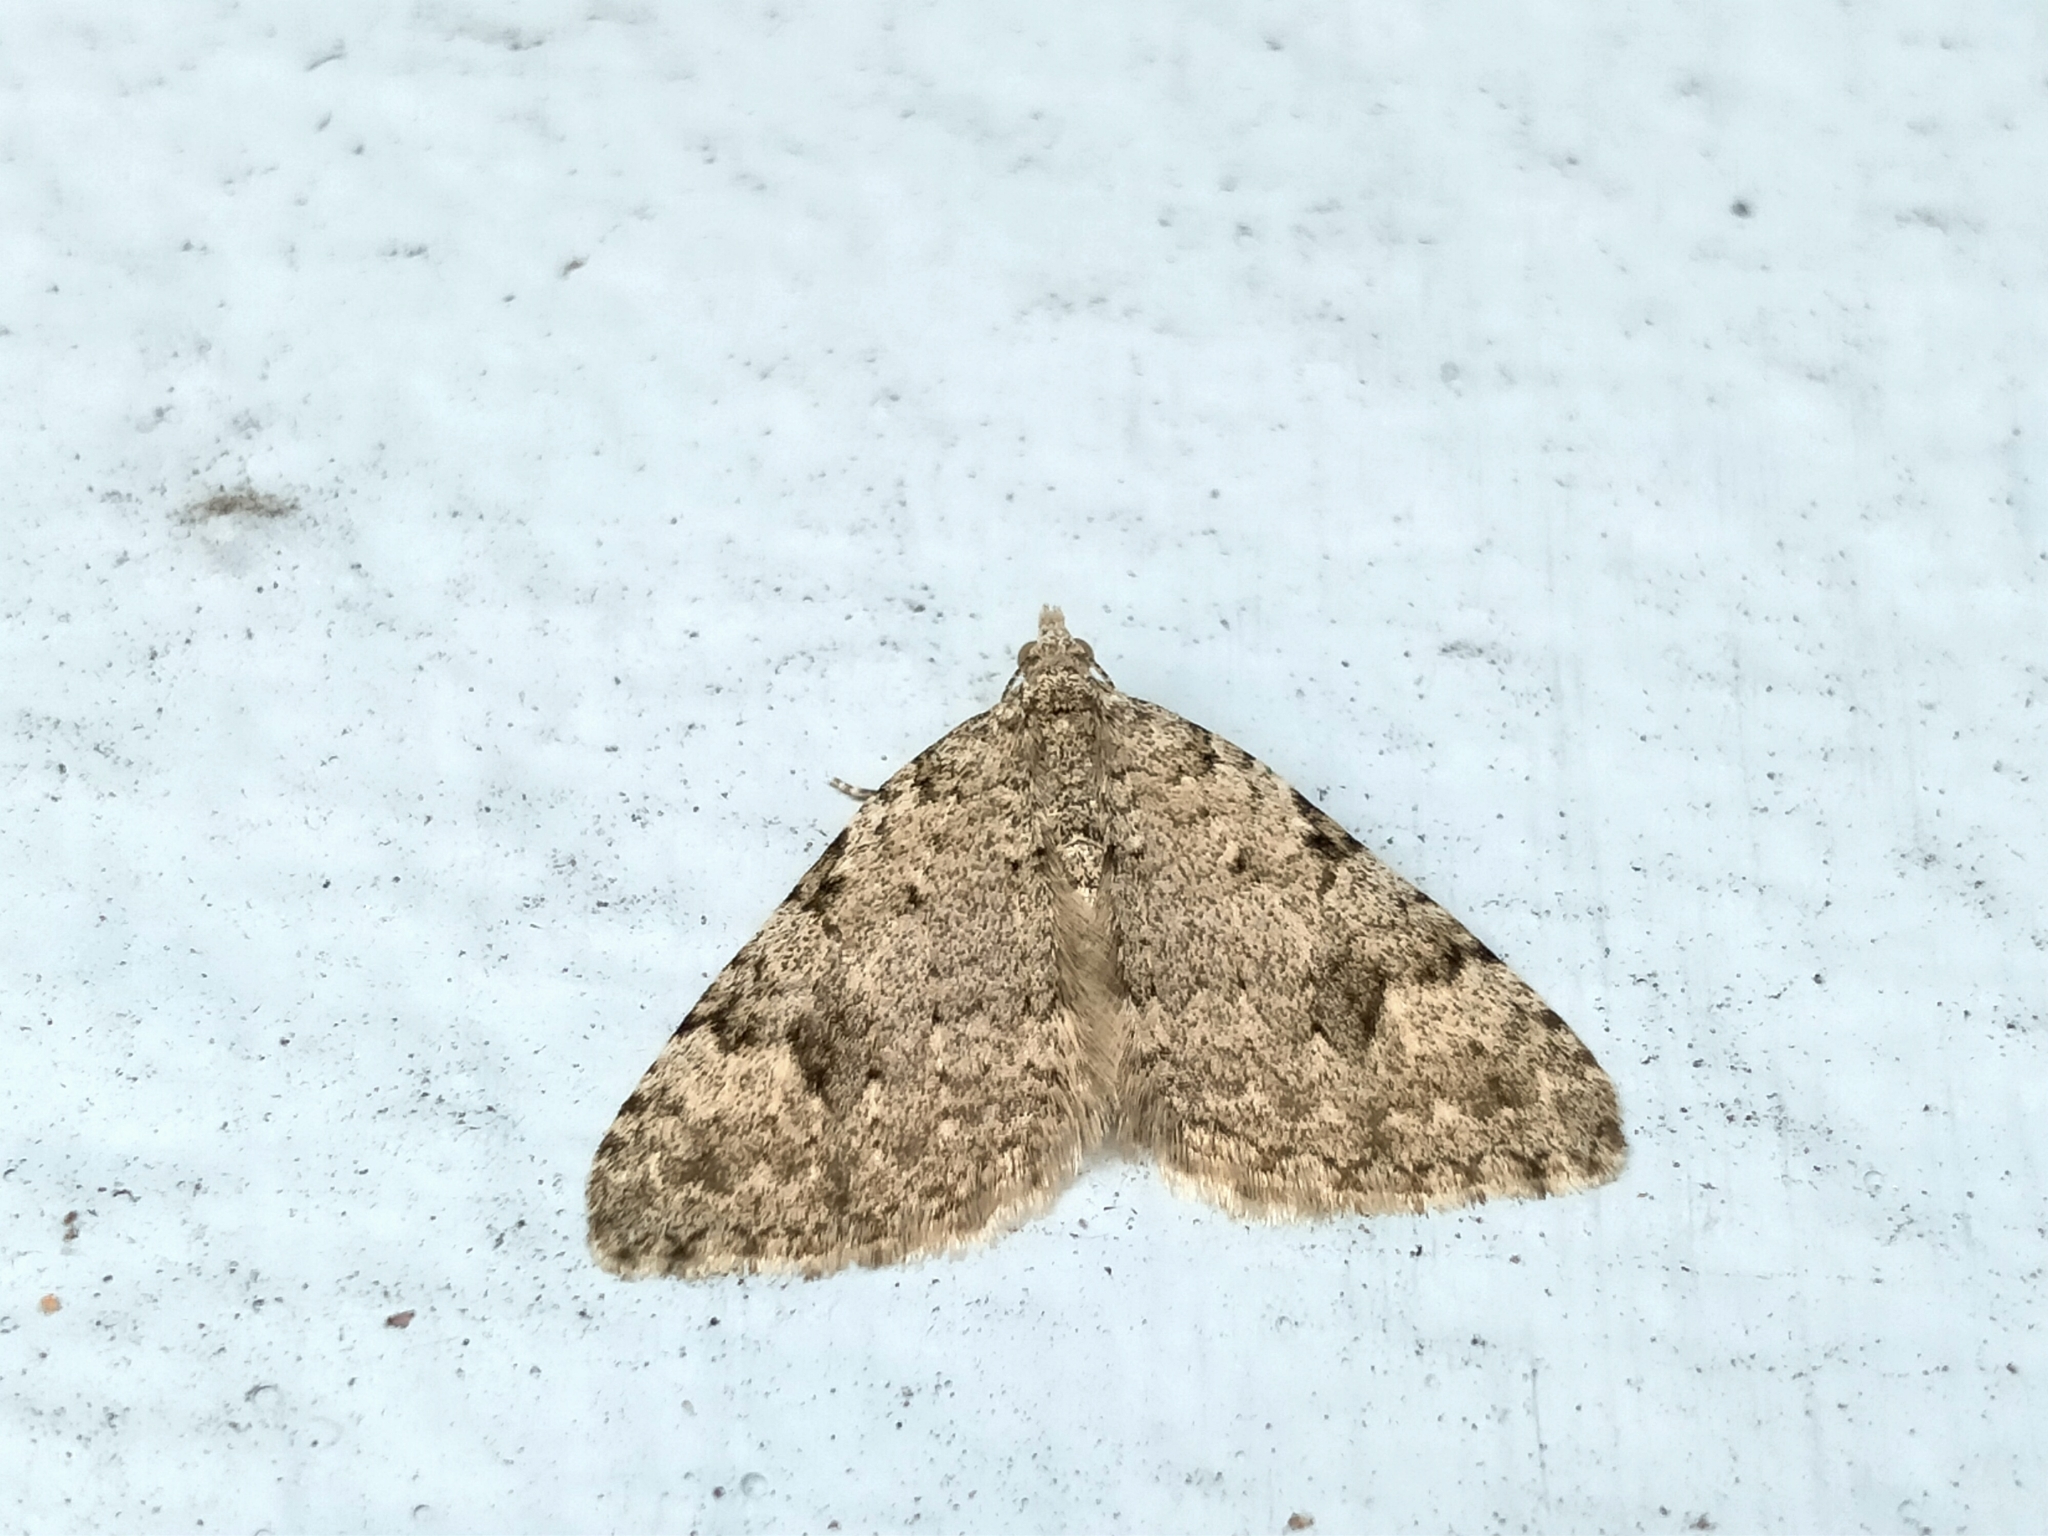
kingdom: Animalia
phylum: Arthropoda
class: Insecta
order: Lepidoptera
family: Geometridae
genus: Helastia
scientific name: Helastia cinerearia
